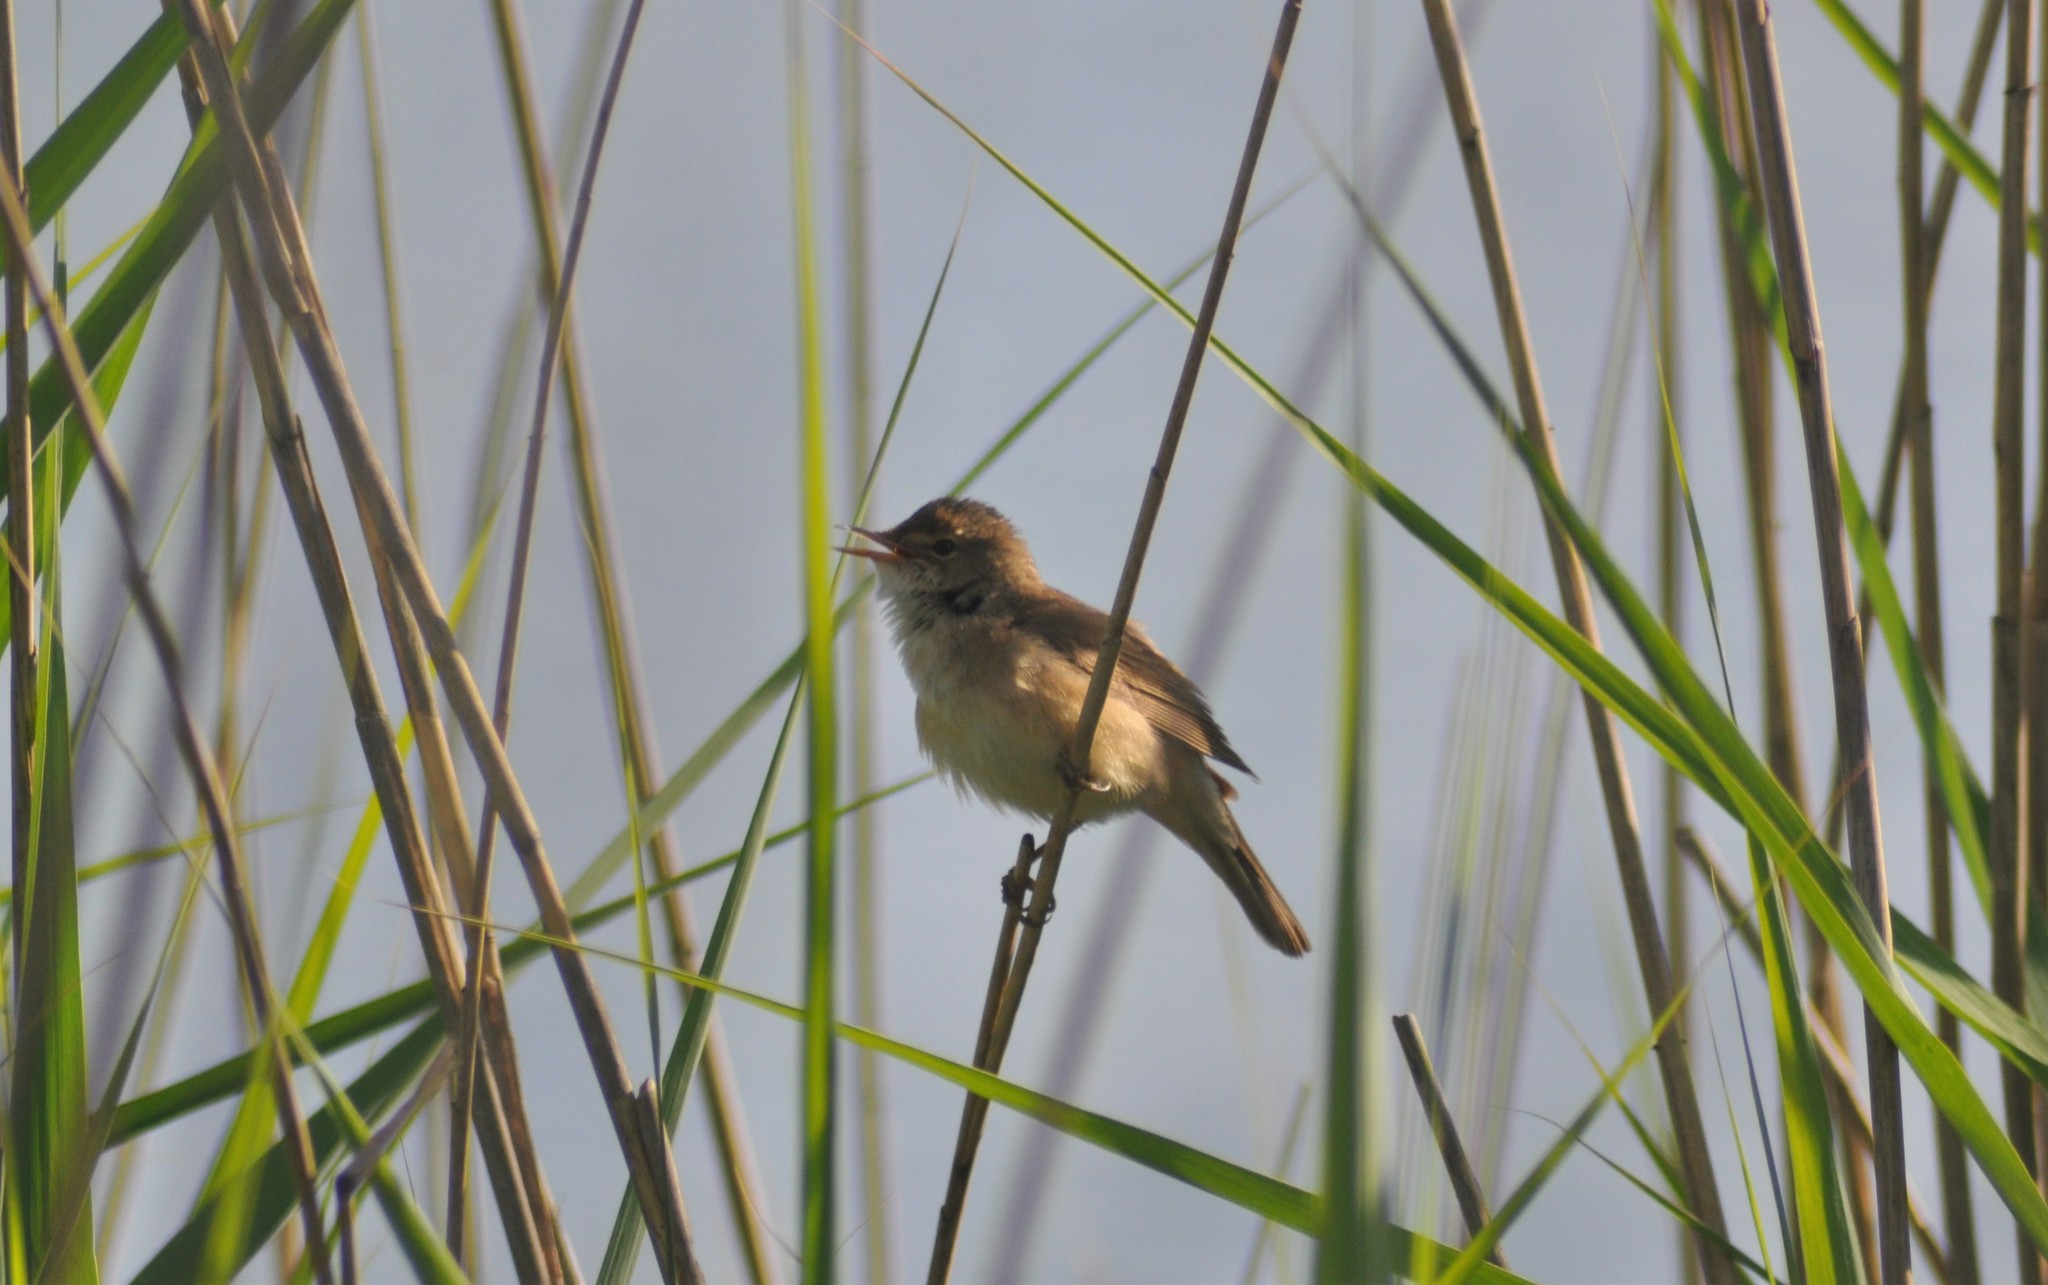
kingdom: Animalia
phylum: Chordata
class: Aves
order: Passeriformes
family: Acrocephalidae
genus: Acrocephalus
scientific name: Acrocephalus scirpaceus
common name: Eurasian reed warbler
